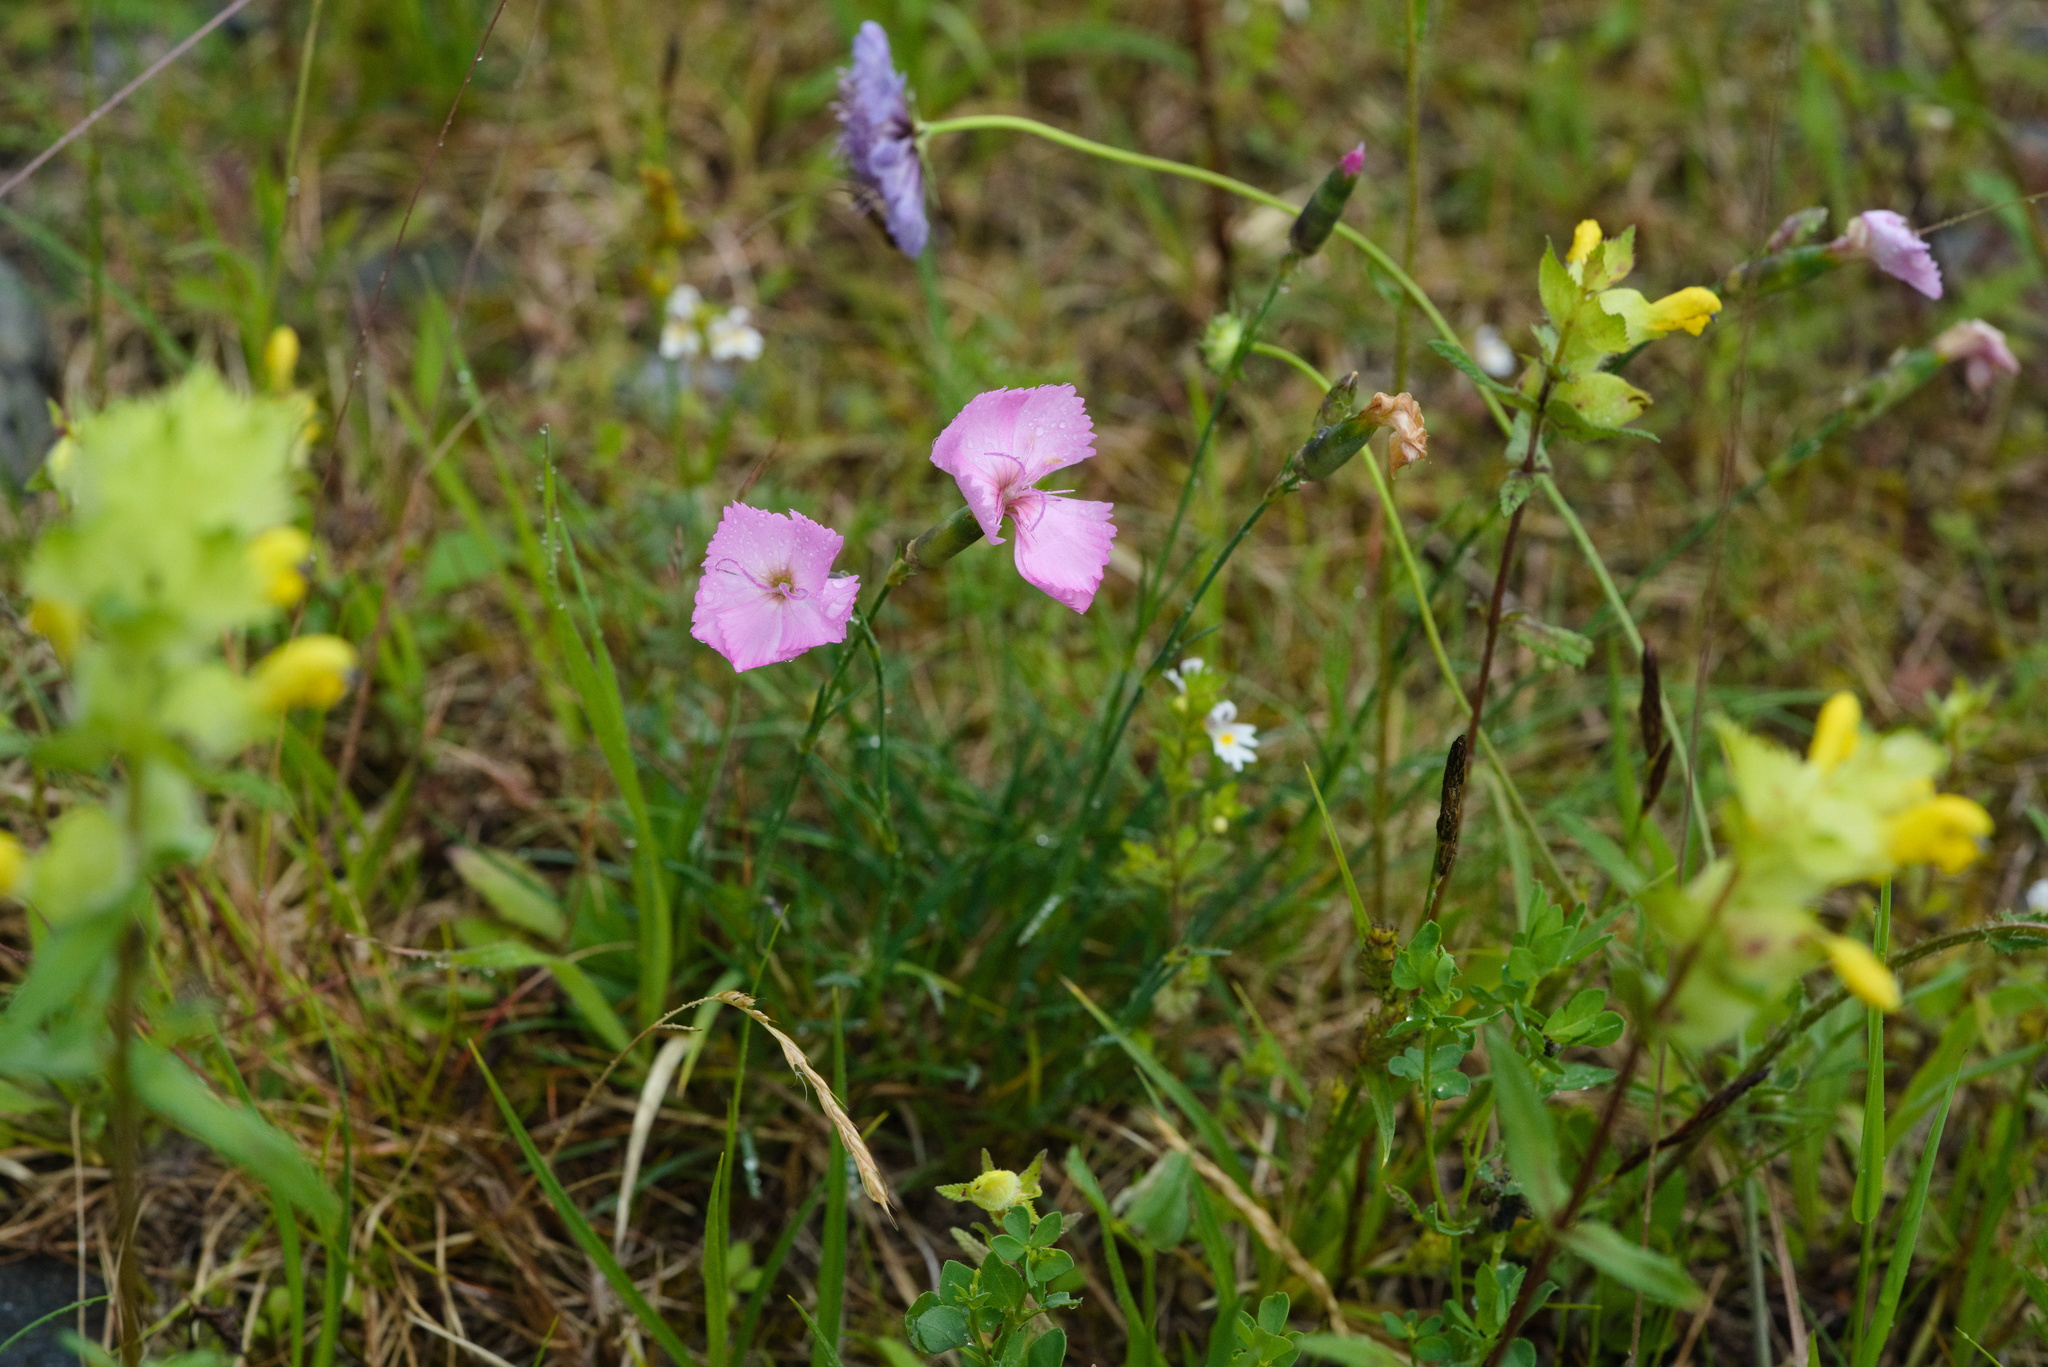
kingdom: Plantae
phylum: Tracheophyta
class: Magnoliopsida
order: Caryophyllales
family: Caryophyllaceae
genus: Dianthus
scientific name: Dianthus sylvestris
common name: Wood pink
